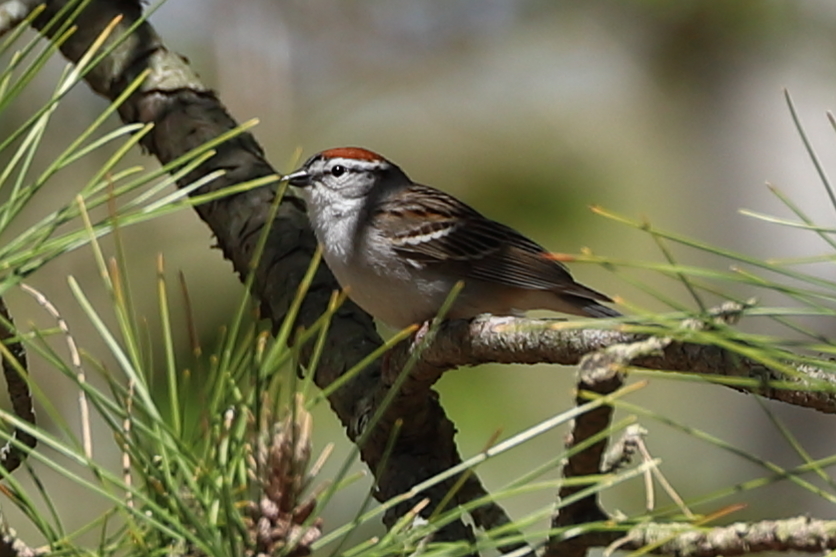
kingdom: Animalia
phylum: Chordata
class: Aves
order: Passeriformes
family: Passerellidae
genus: Spizella
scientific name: Spizella passerina
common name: Chipping sparrow
